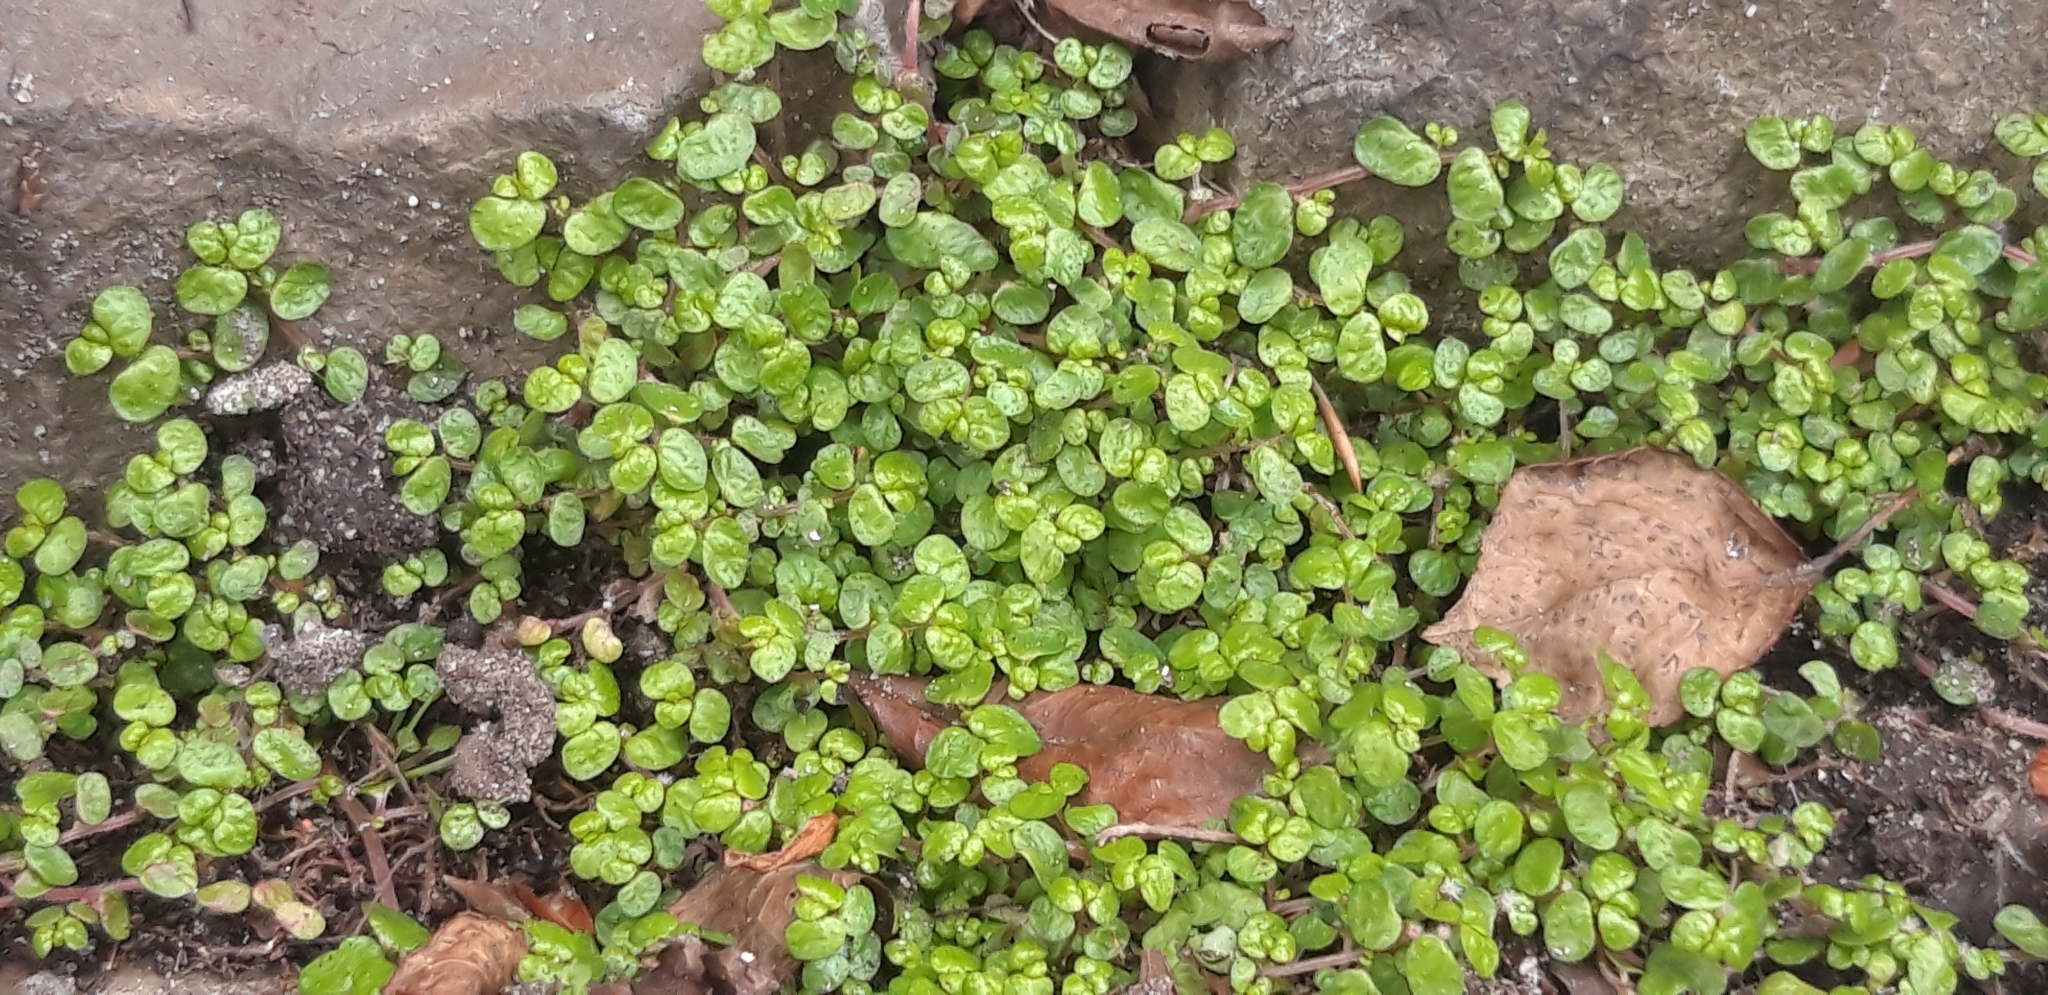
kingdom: Plantae
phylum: Tracheophyta
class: Magnoliopsida
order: Rosales
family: Urticaceae
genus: Soleirolia
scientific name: Soleirolia soleirolii
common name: Mind-your-own-business
